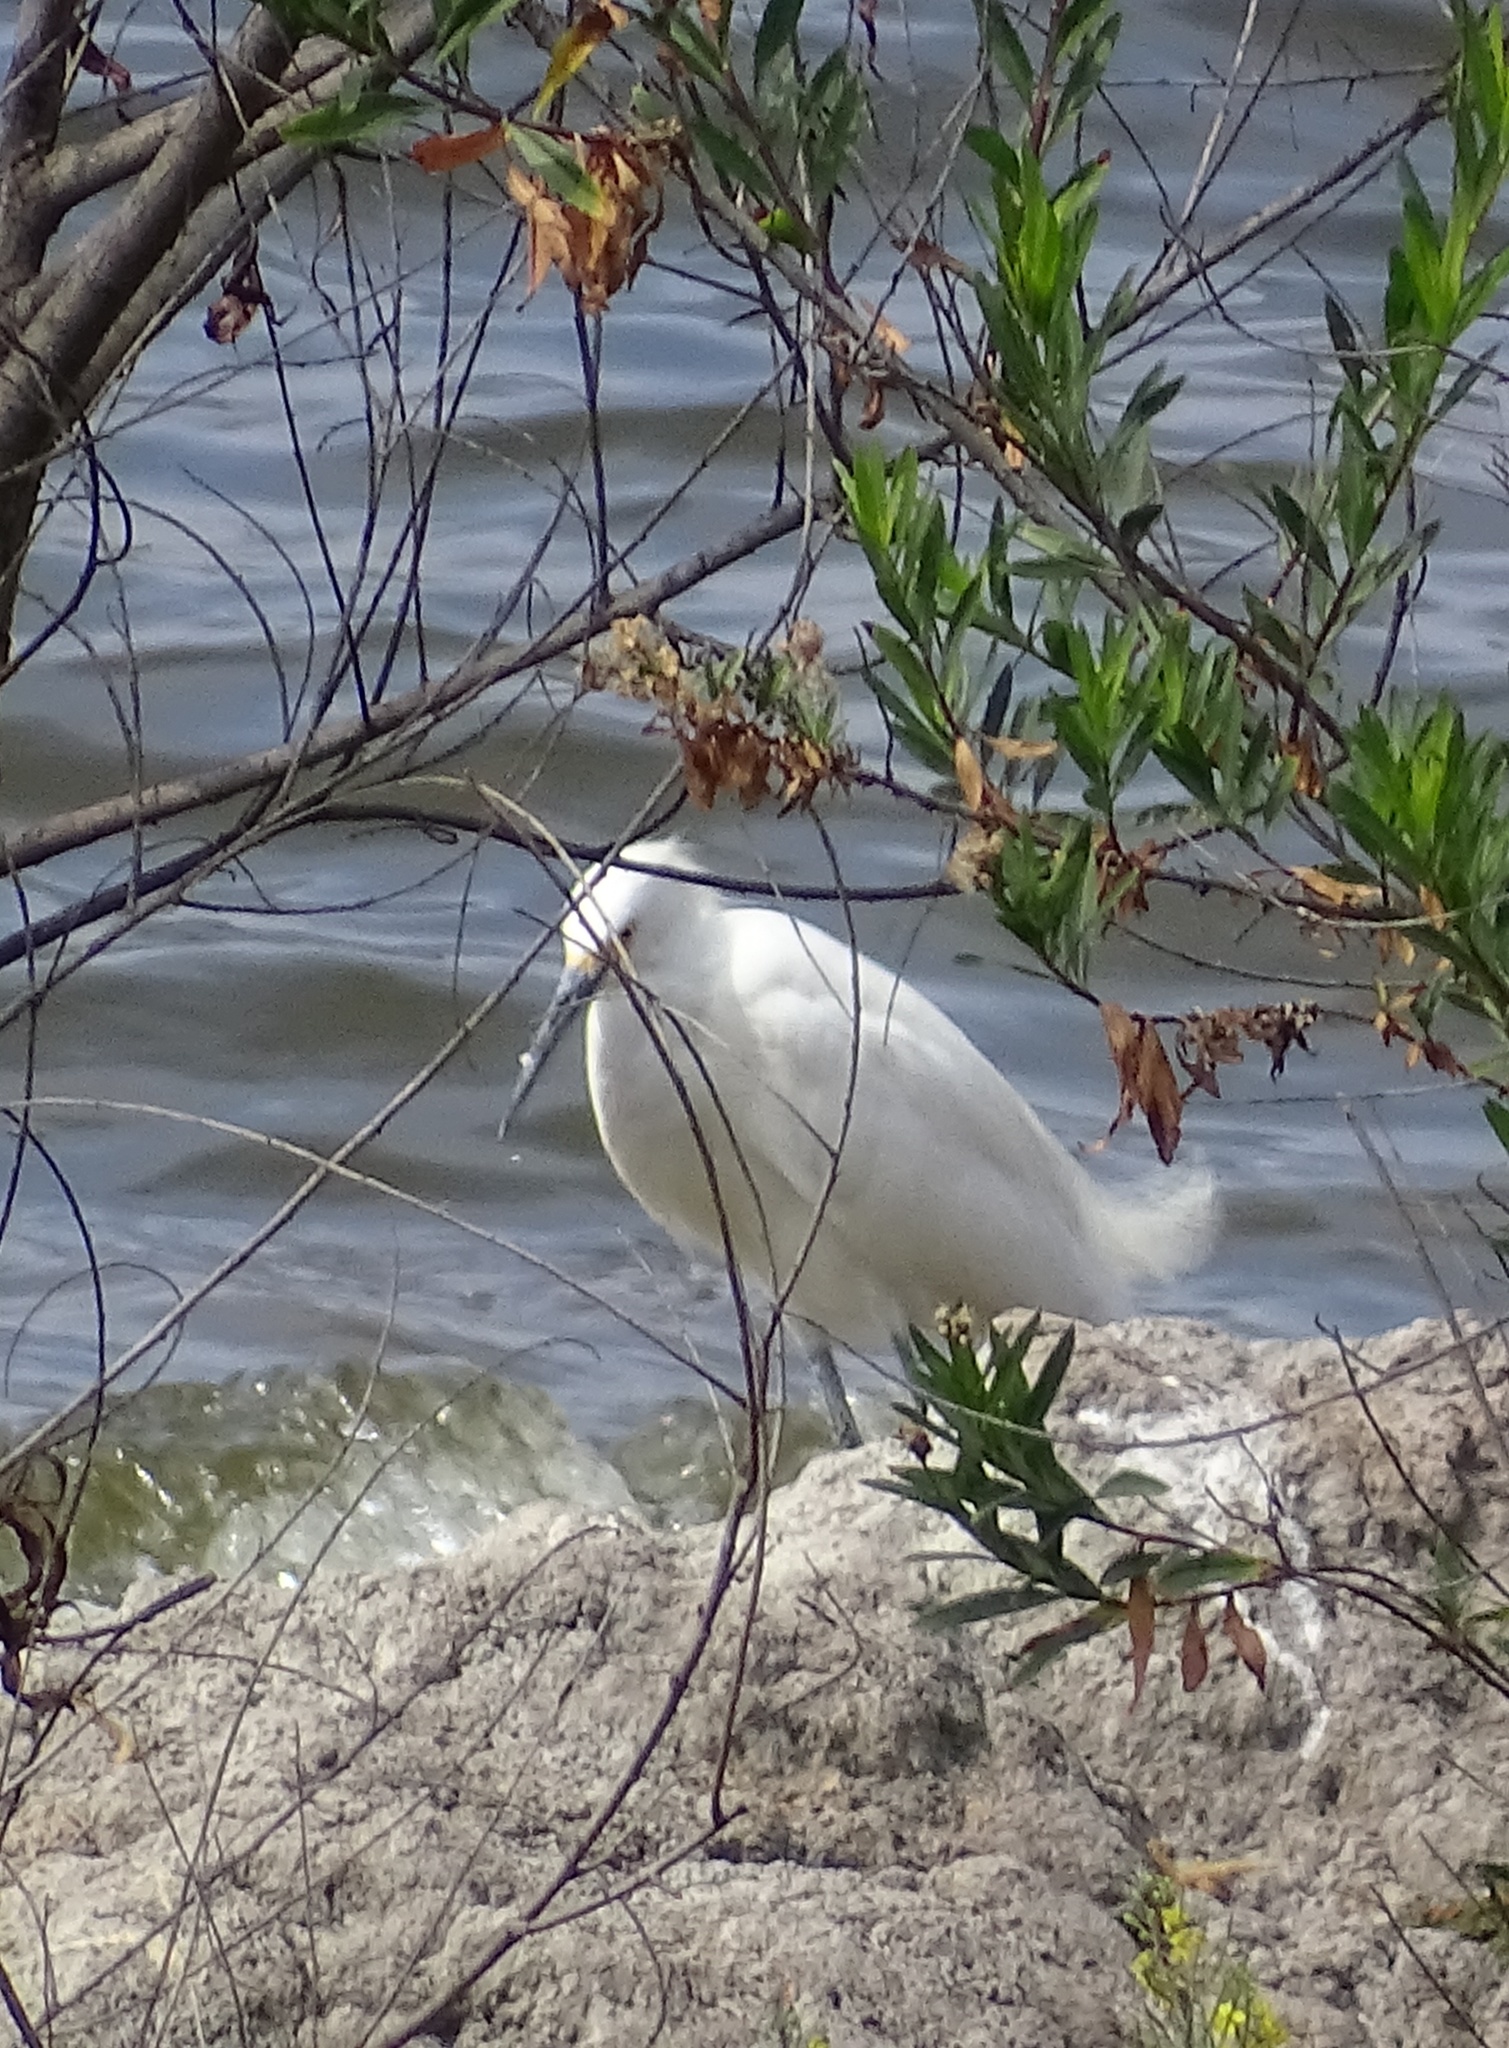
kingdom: Animalia
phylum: Chordata
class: Aves
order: Pelecaniformes
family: Ardeidae
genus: Egretta
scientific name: Egretta thula
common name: Snowy egret
